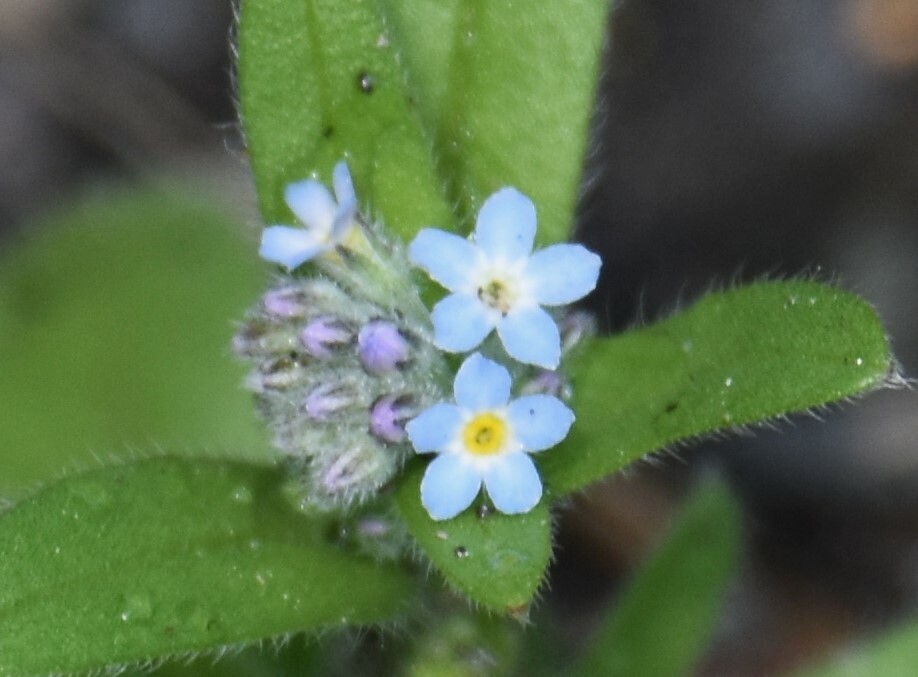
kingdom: Plantae
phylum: Tracheophyta
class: Magnoliopsida
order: Boraginales
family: Boraginaceae
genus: Myosotis
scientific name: Myosotis arvensis
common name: Field forget-me-not
